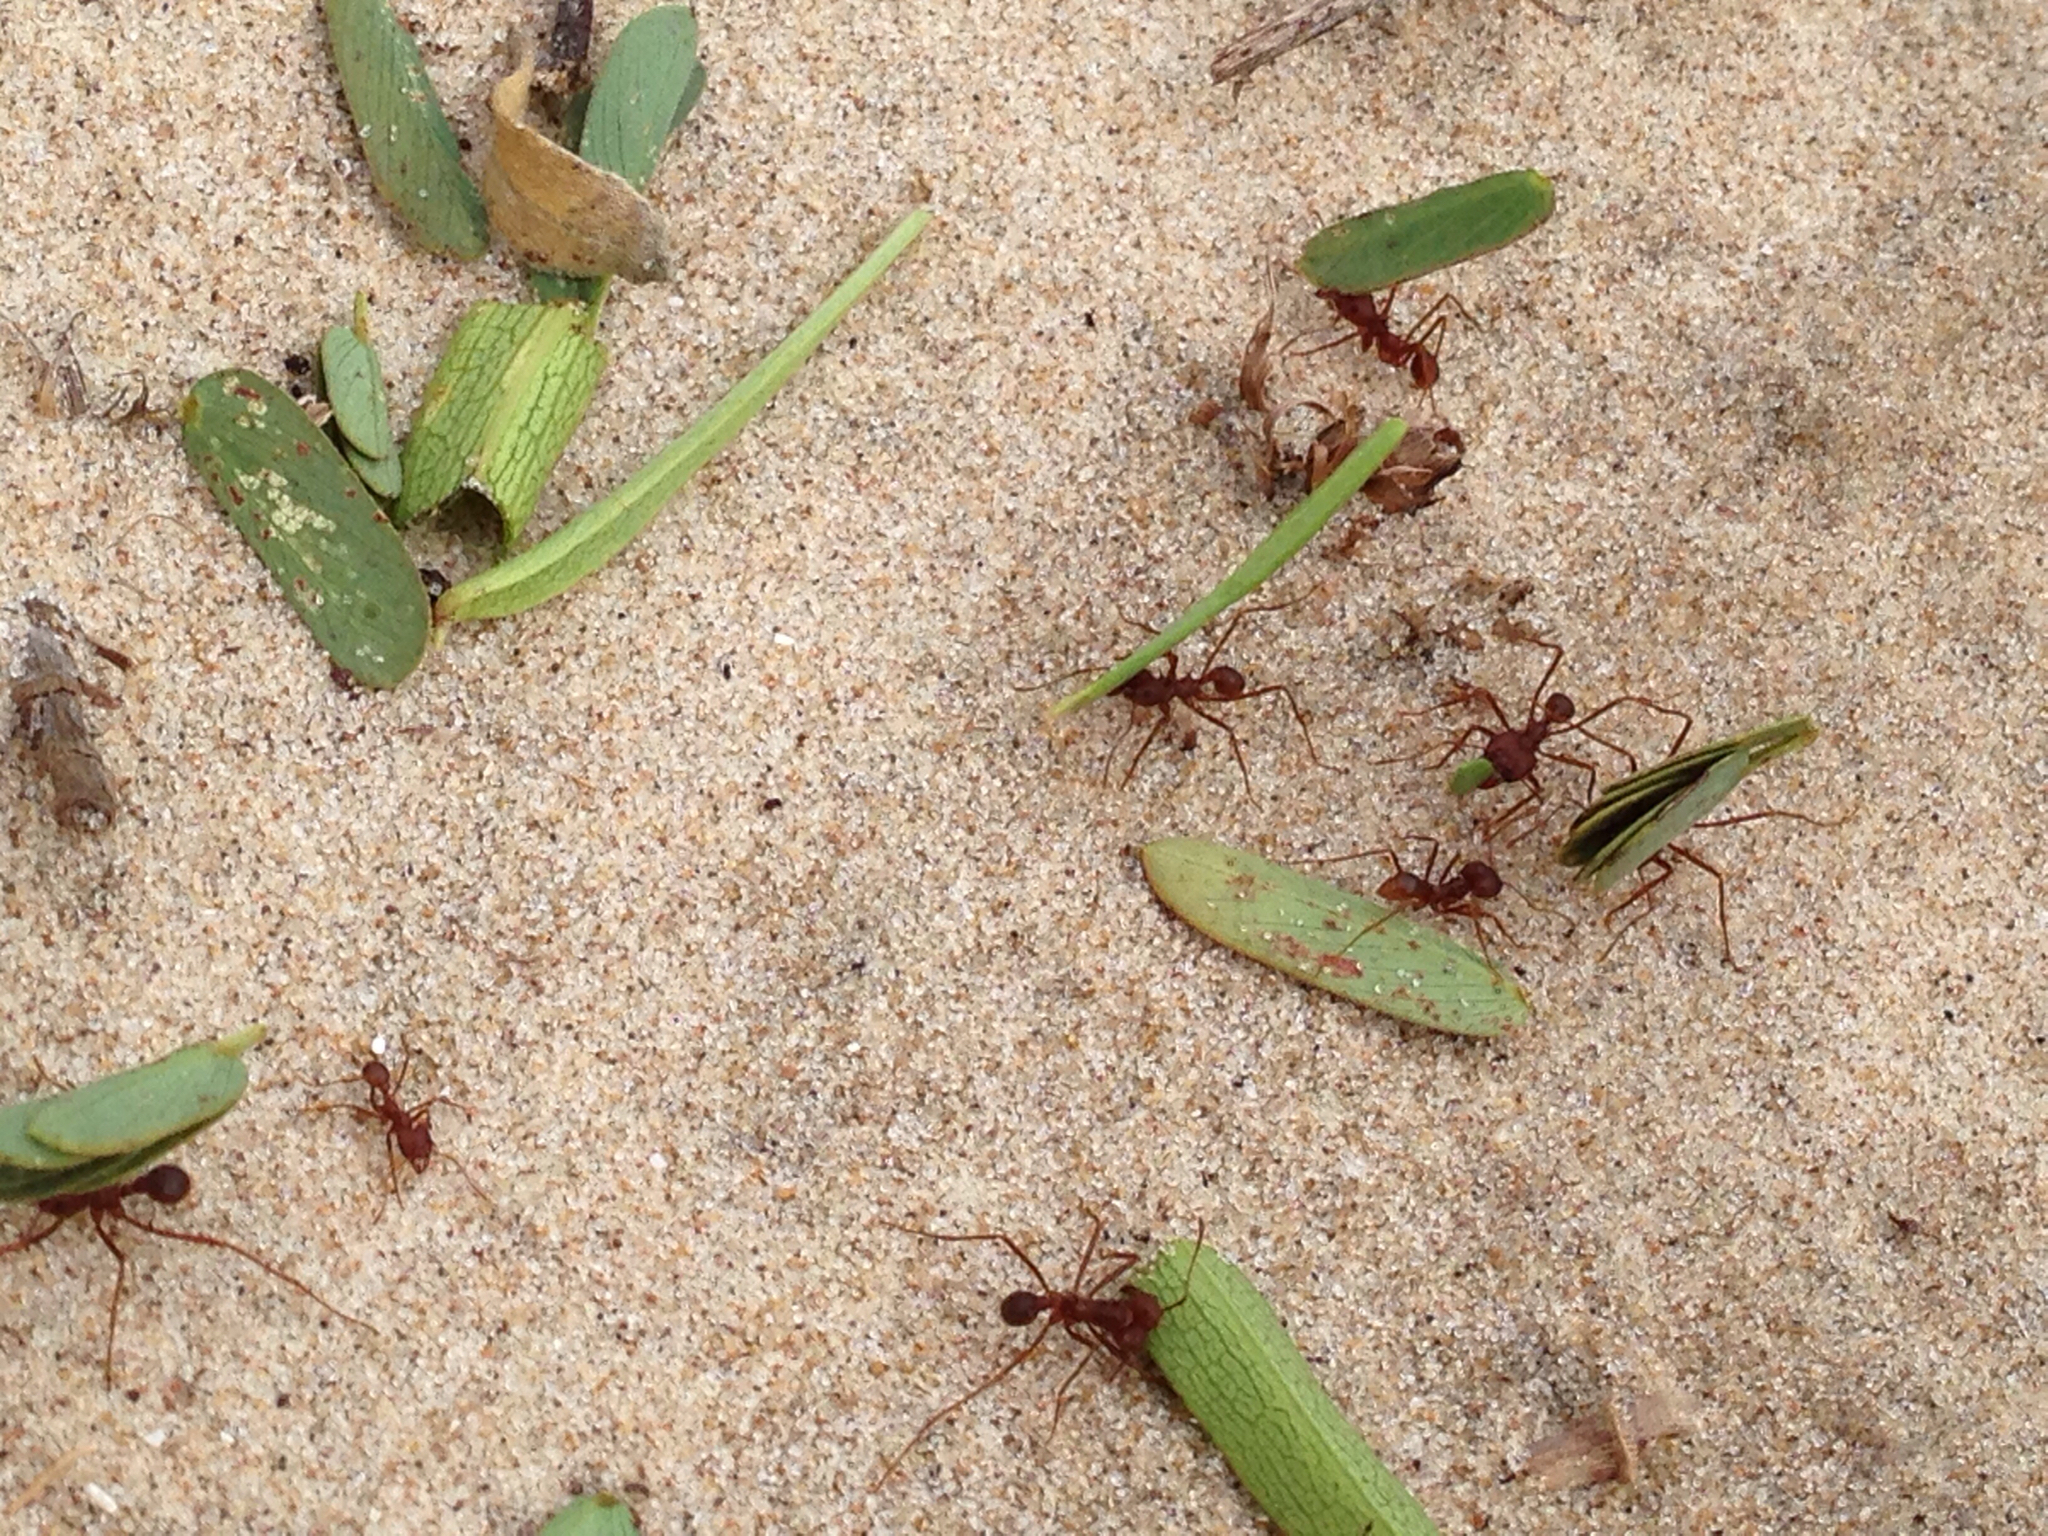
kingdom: Animalia
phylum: Arthropoda
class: Insecta
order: Hymenoptera
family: Formicidae
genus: Atta
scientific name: Atta texana
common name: Texas leafcutting ant
